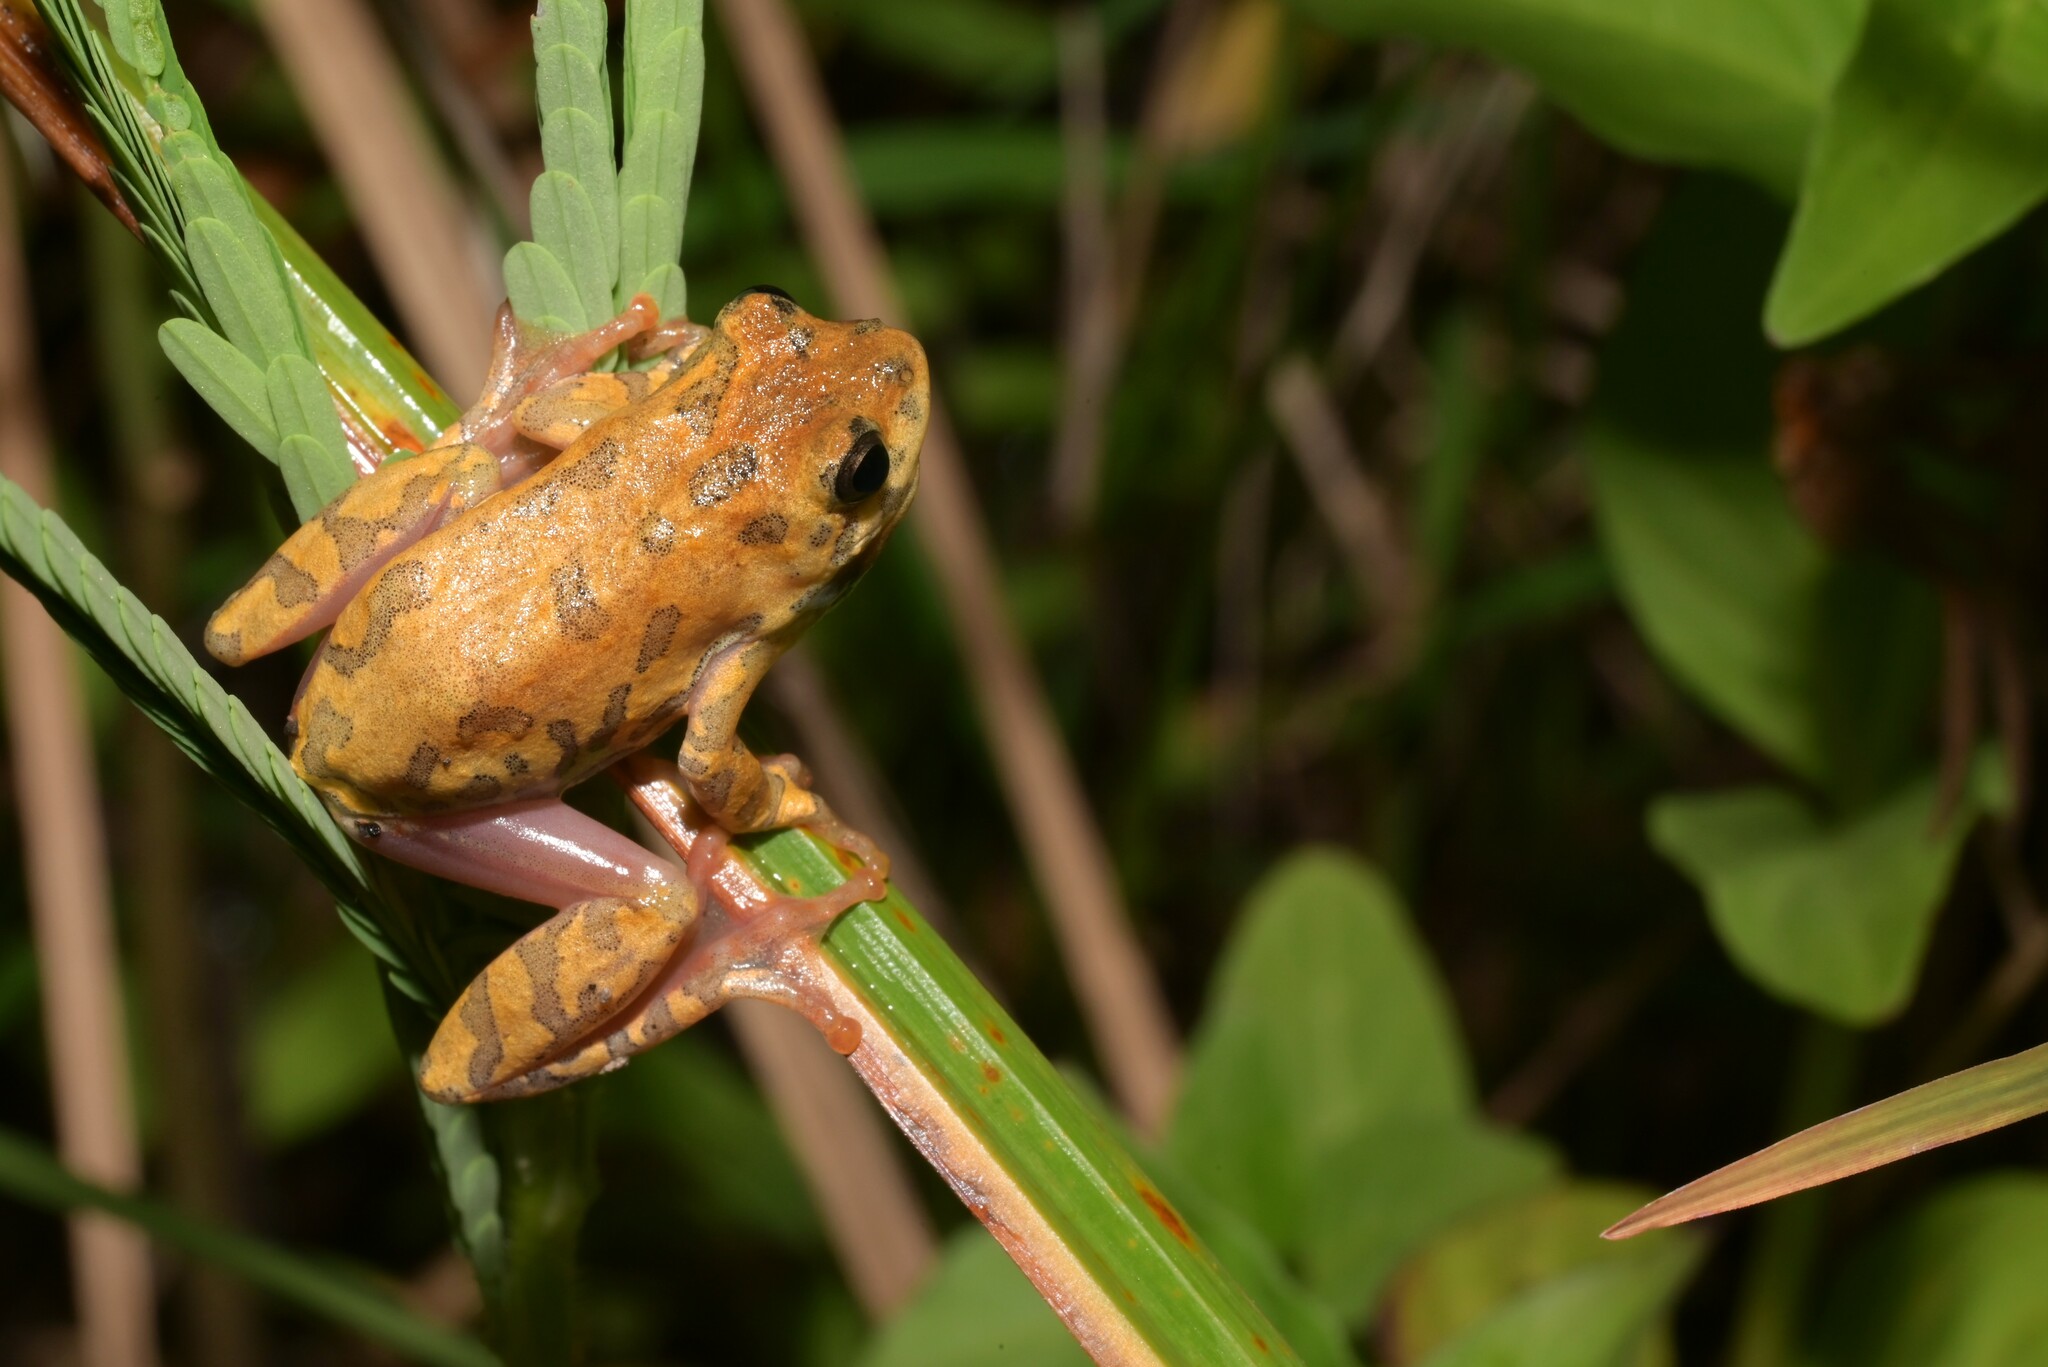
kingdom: Animalia
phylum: Chordata
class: Amphibia
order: Anura
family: Hyperoliidae
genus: Hyperolius
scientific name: Hyperolius glandicolor
